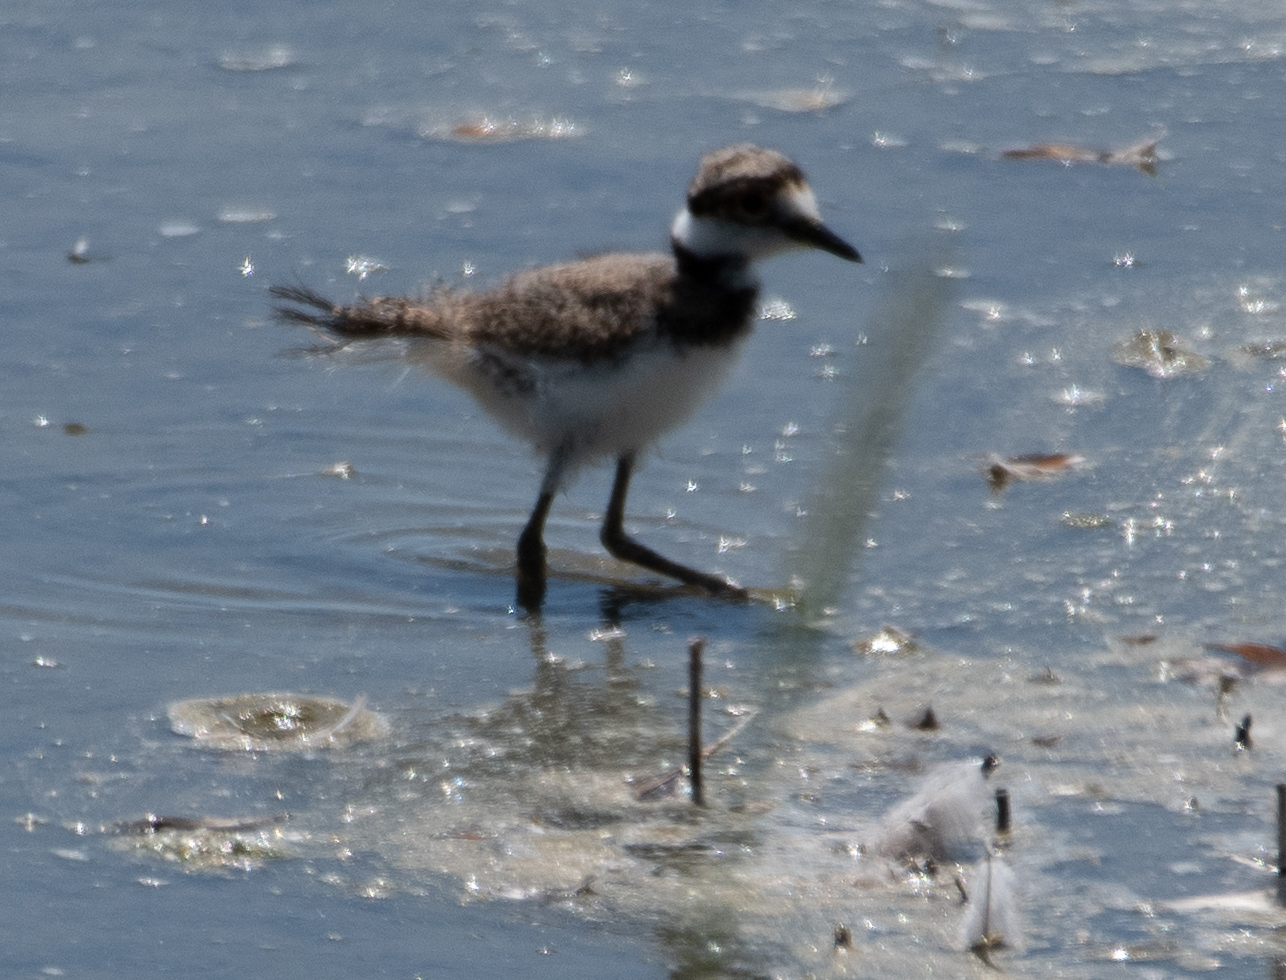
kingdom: Animalia
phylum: Chordata
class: Aves
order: Charadriiformes
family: Charadriidae
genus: Charadrius
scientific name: Charadrius vociferus
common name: Killdeer
